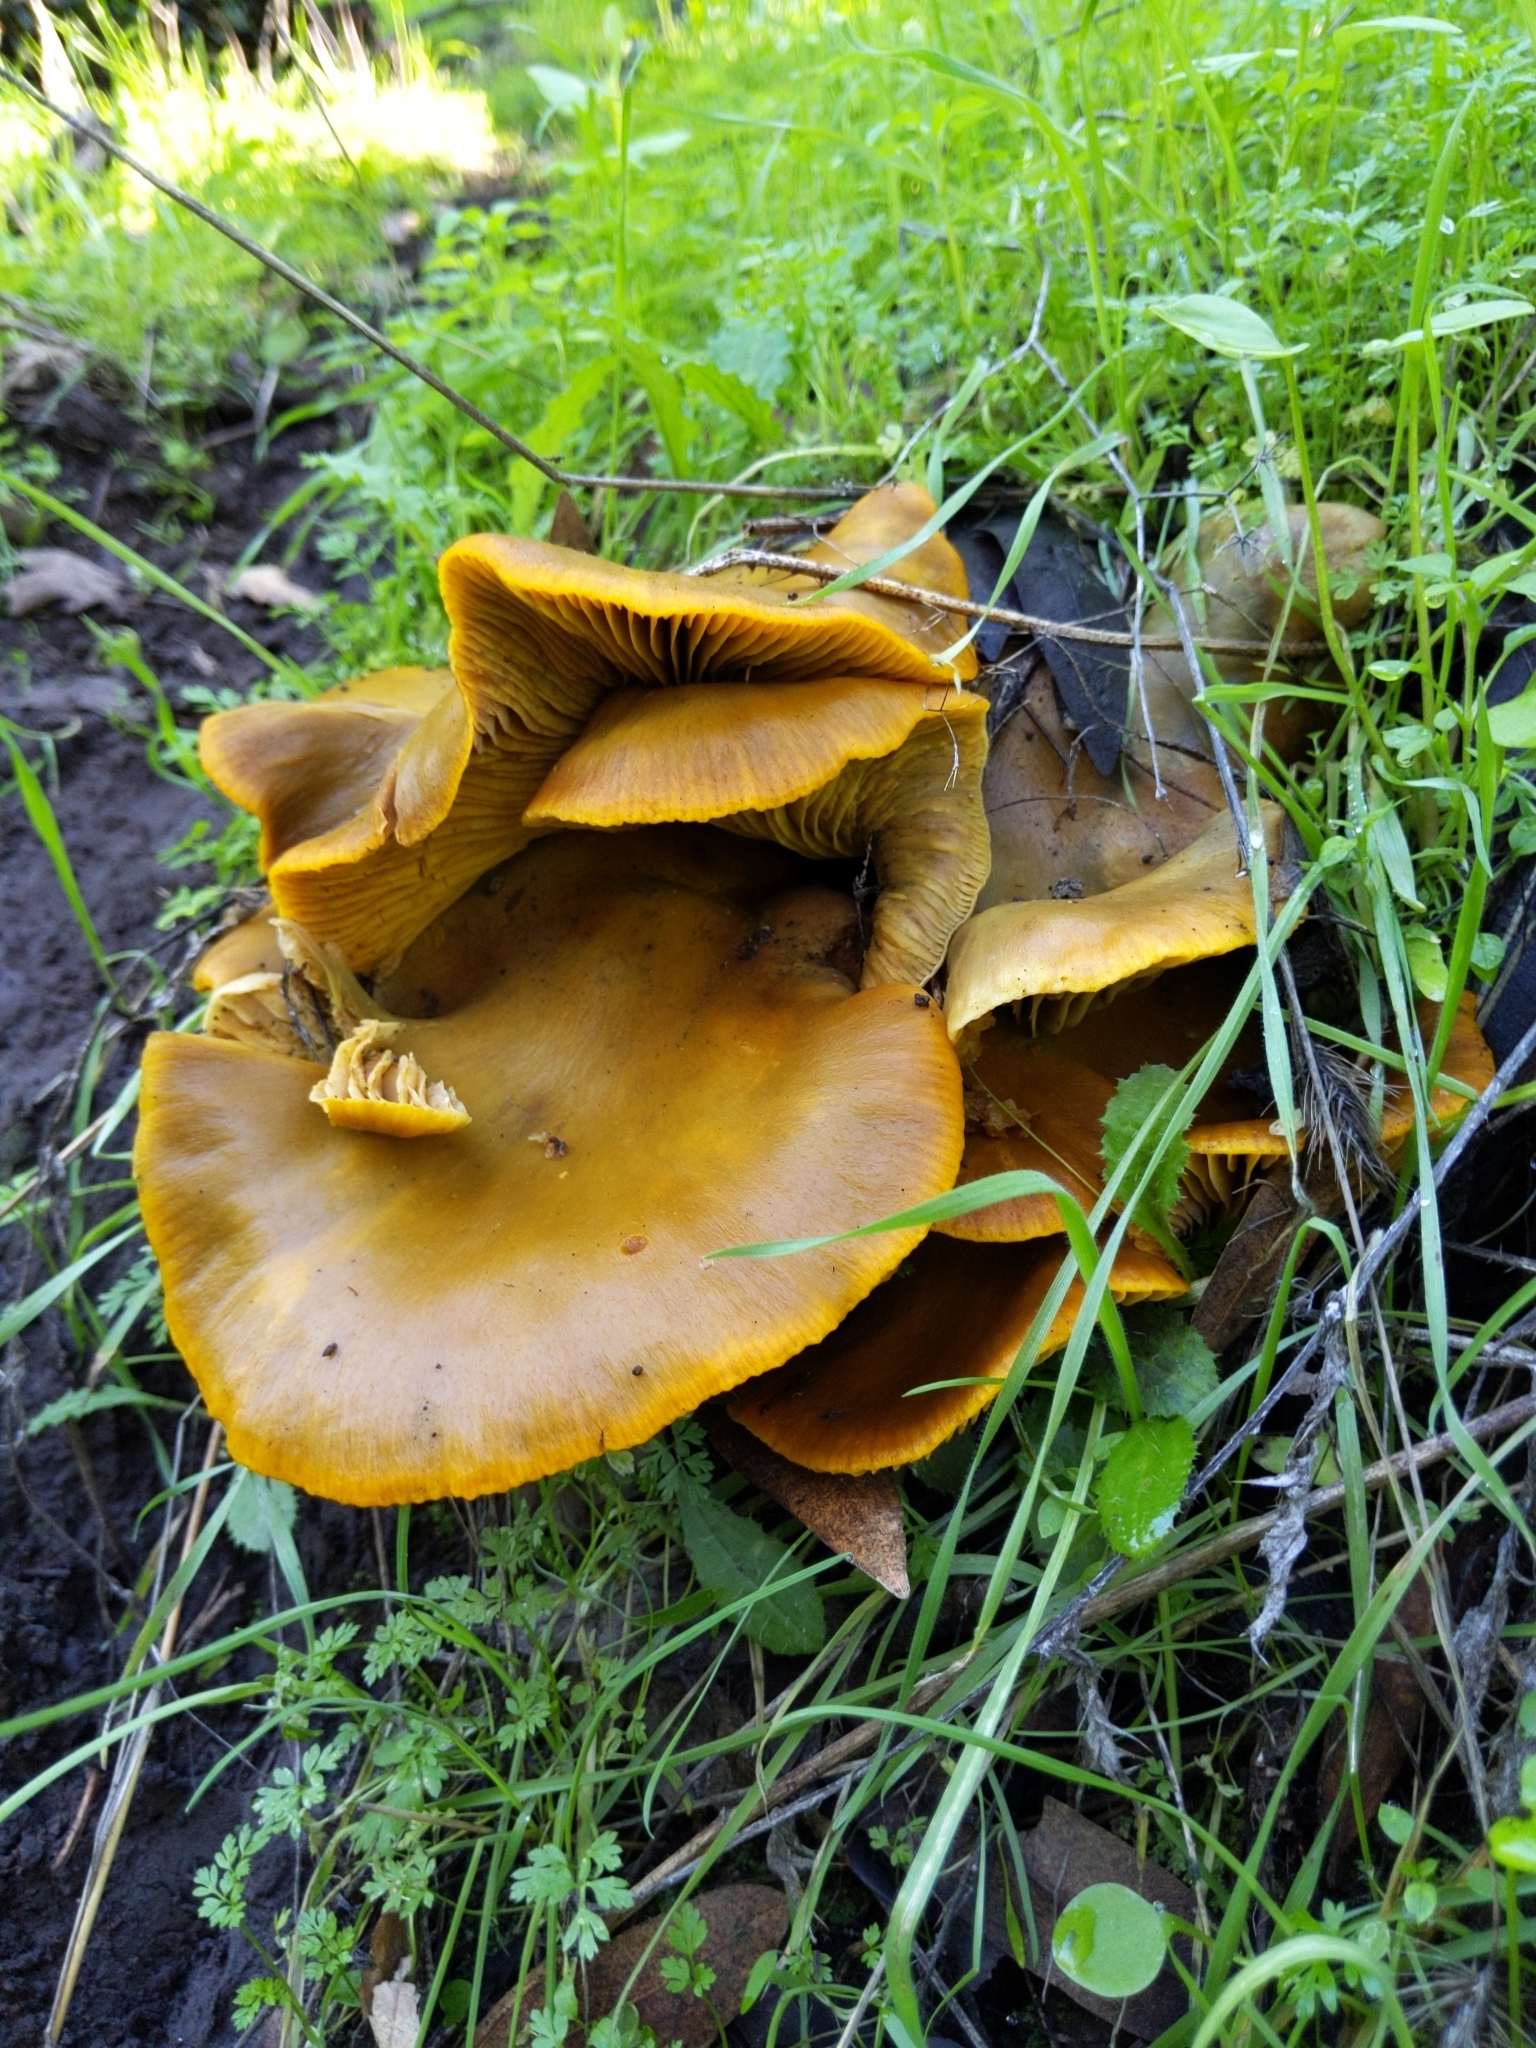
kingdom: Fungi
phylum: Basidiomycota
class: Agaricomycetes
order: Agaricales
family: Omphalotaceae
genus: Omphalotus
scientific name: Omphalotus olivascens
